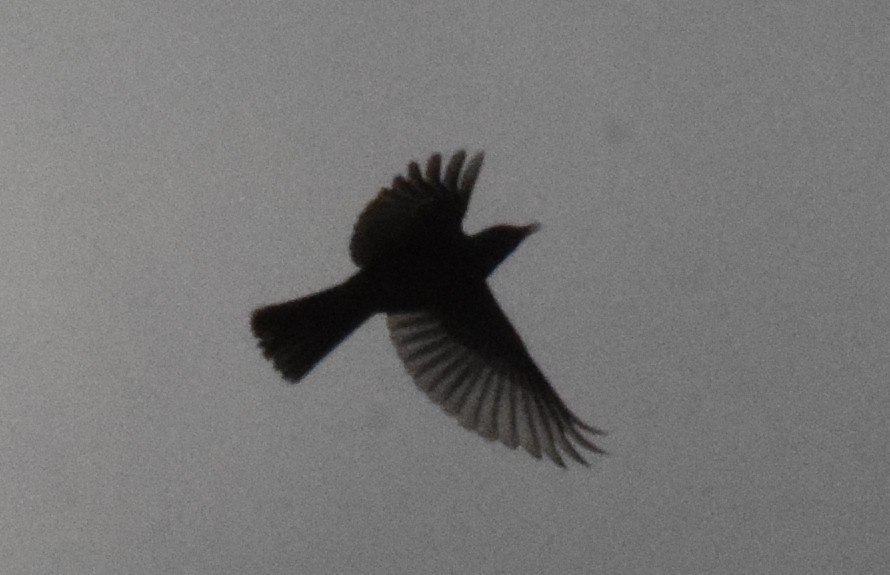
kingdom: Animalia
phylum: Chordata
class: Aves
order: Passeriformes
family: Turdidae
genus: Turdus
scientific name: Turdus merula
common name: Common blackbird
